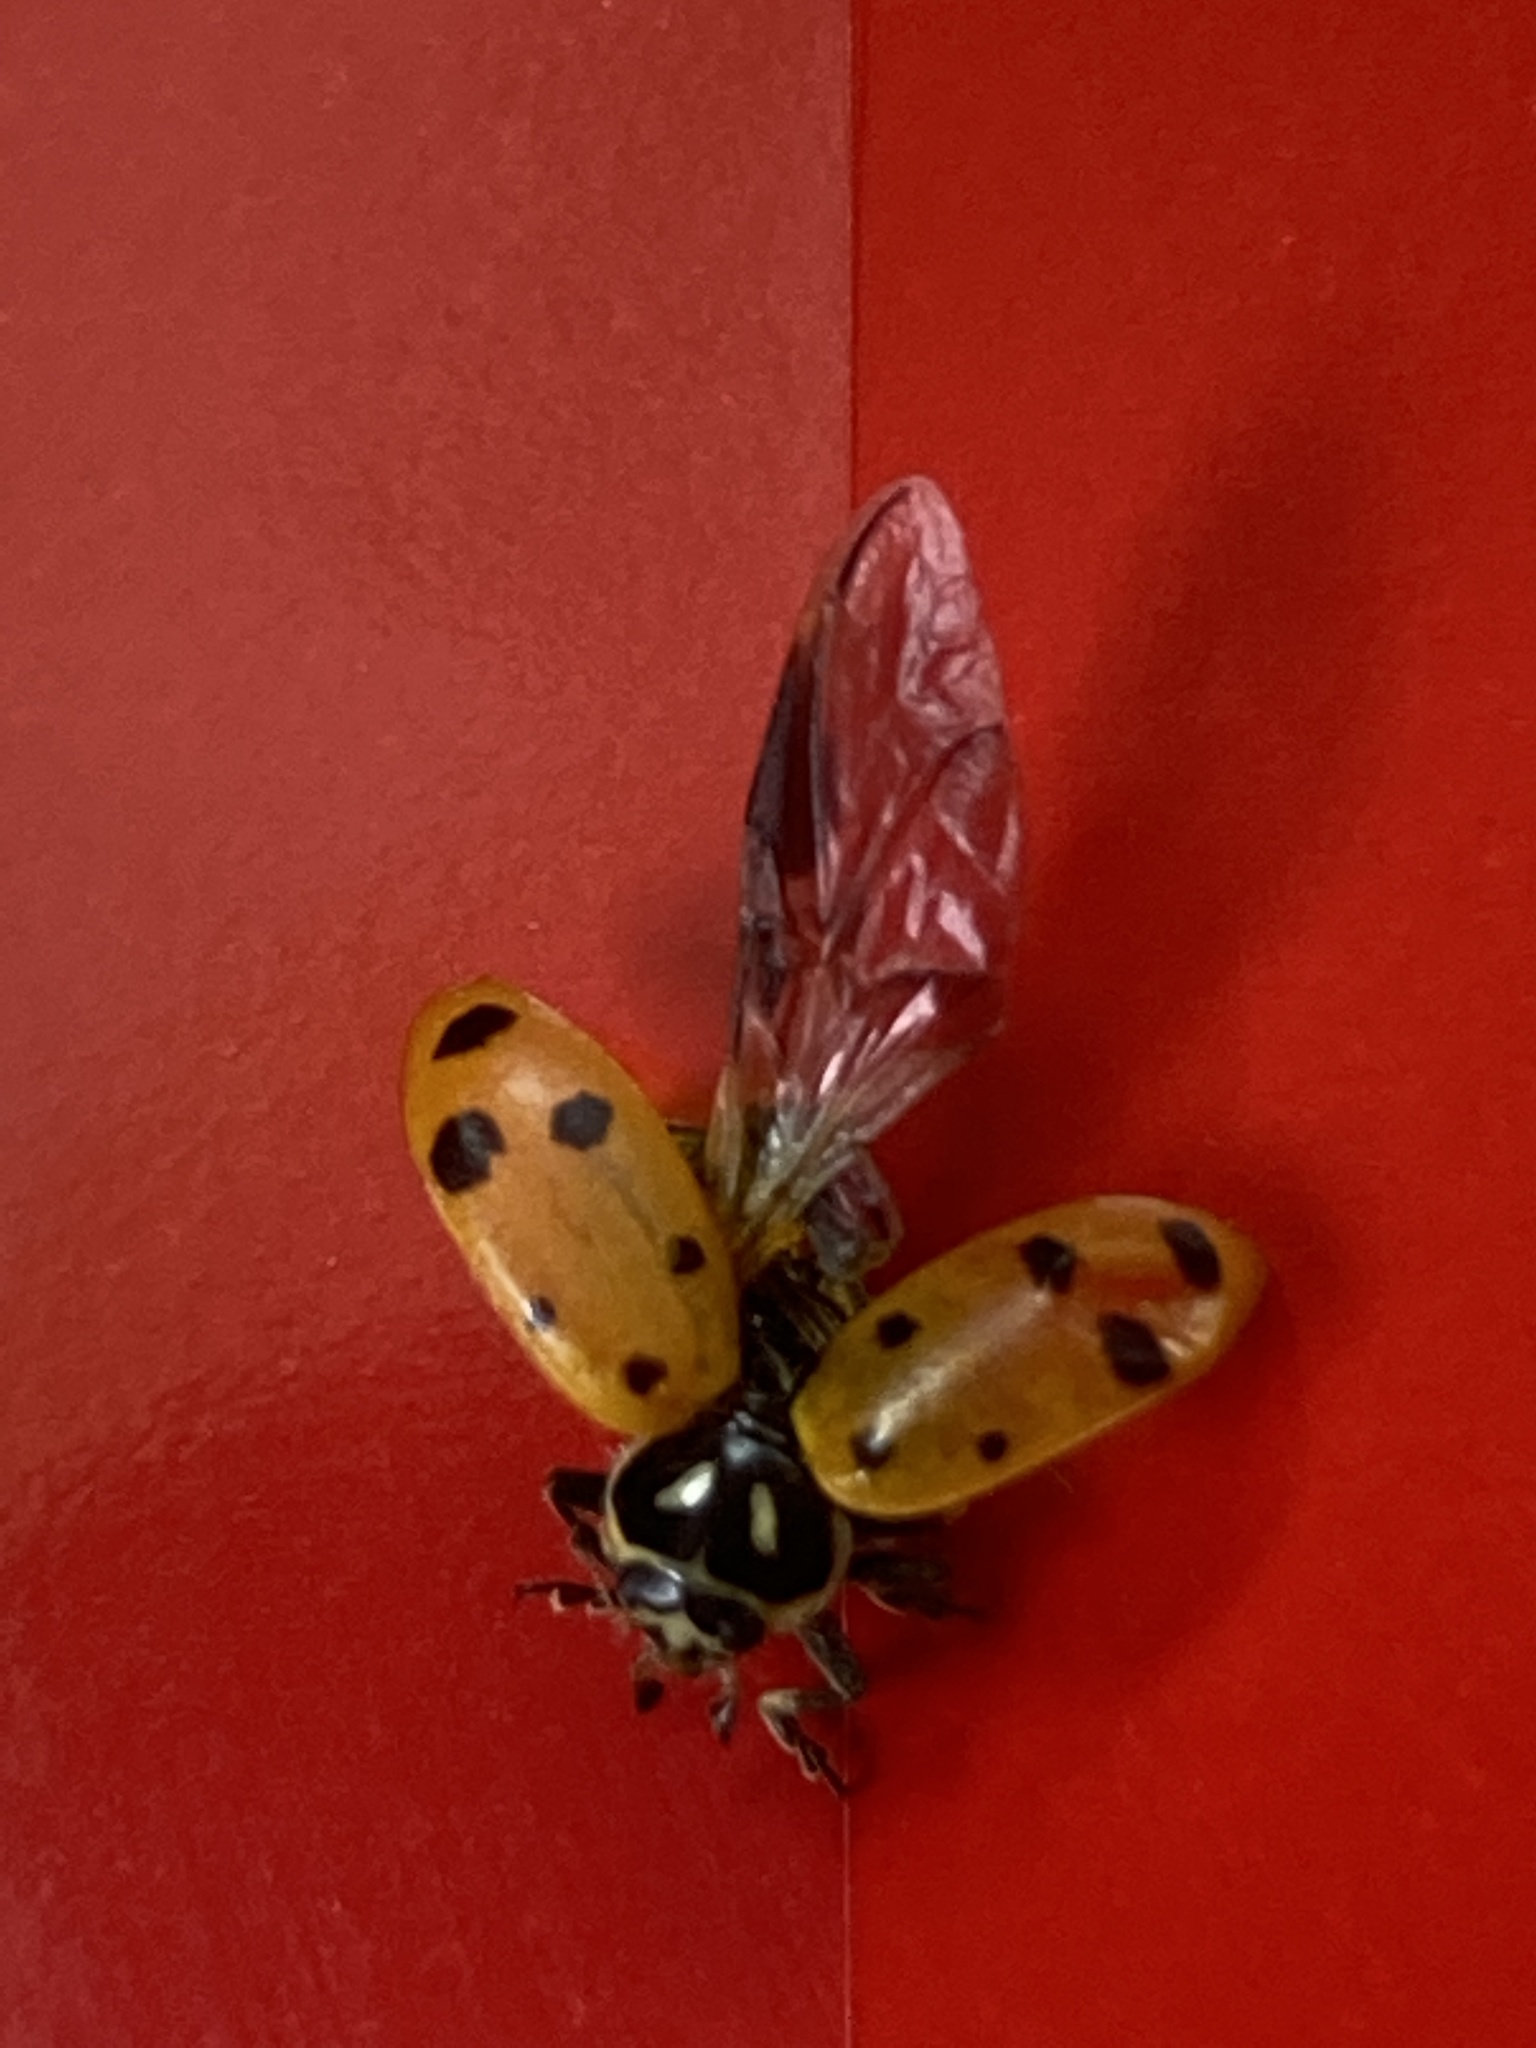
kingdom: Animalia
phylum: Arthropoda
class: Insecta
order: Coleoptera
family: Coccinellidae
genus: Hippodamia
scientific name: Hippodamia convergens
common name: Convergent lady beetle
